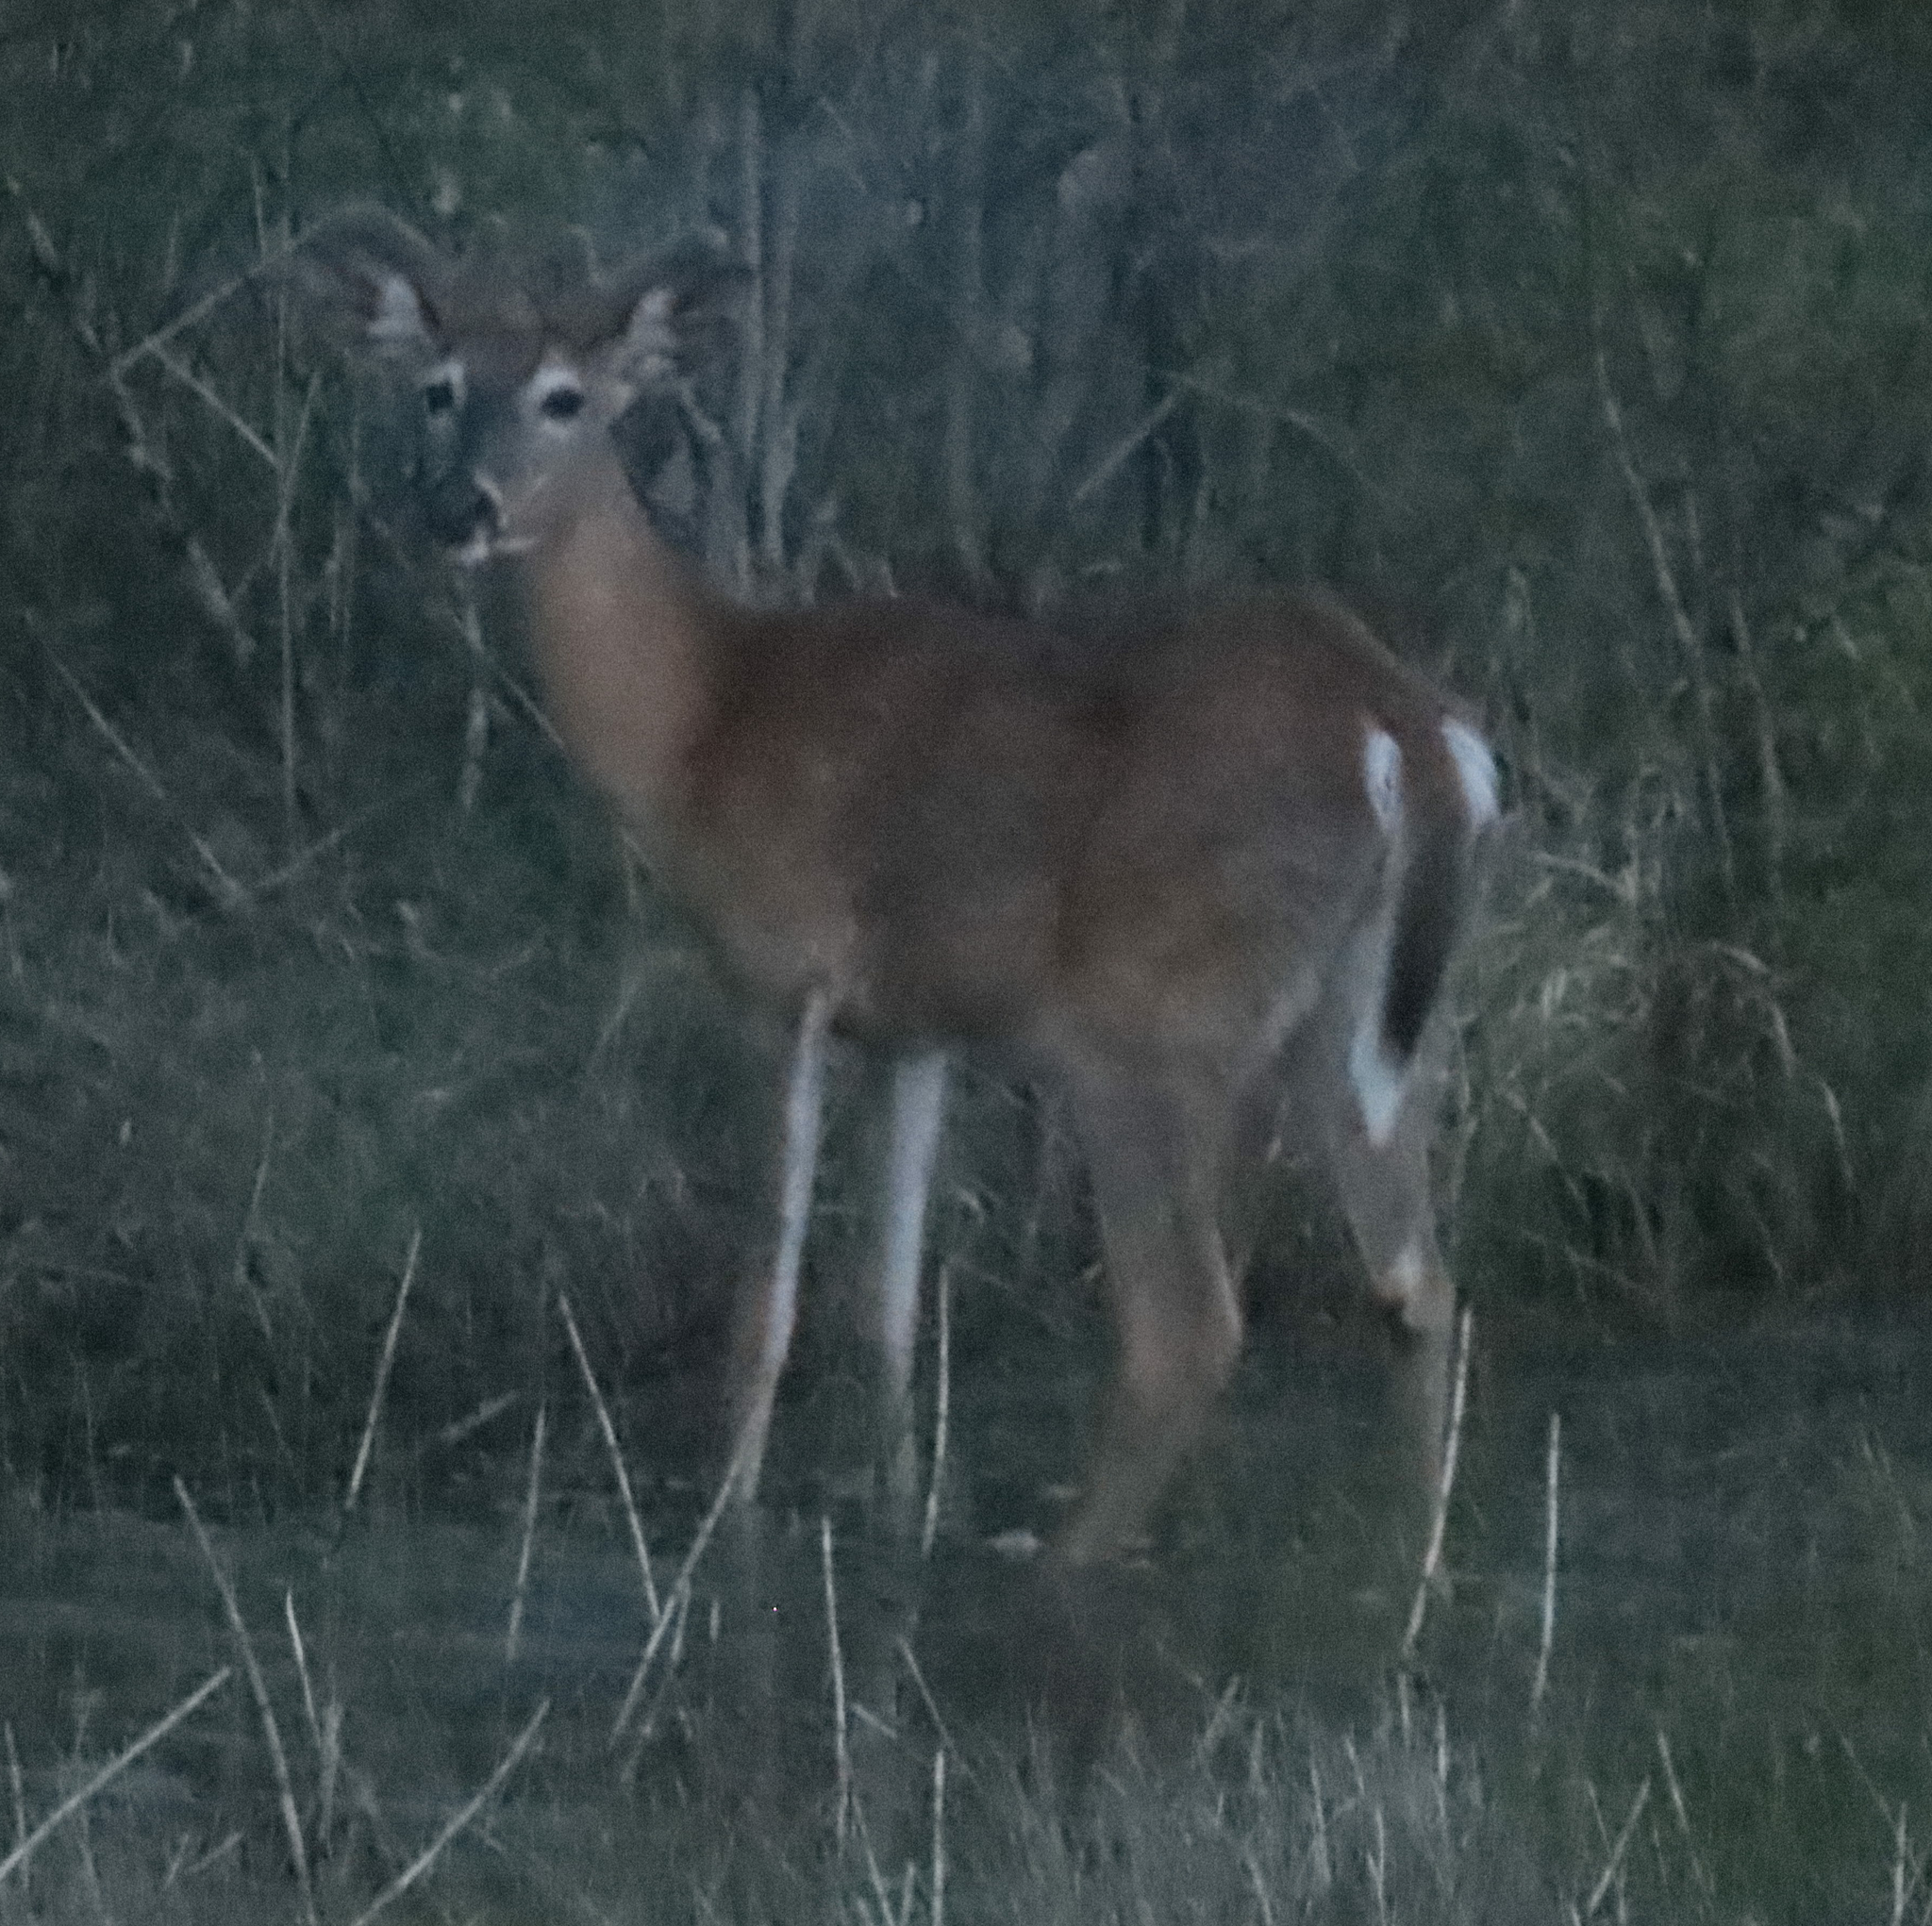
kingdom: Animalia
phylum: Chordata
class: Mammalia
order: Artiodactyla
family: Cervidae
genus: Odocoileus
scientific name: Odocoileus virginianus
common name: White-tailed deer
